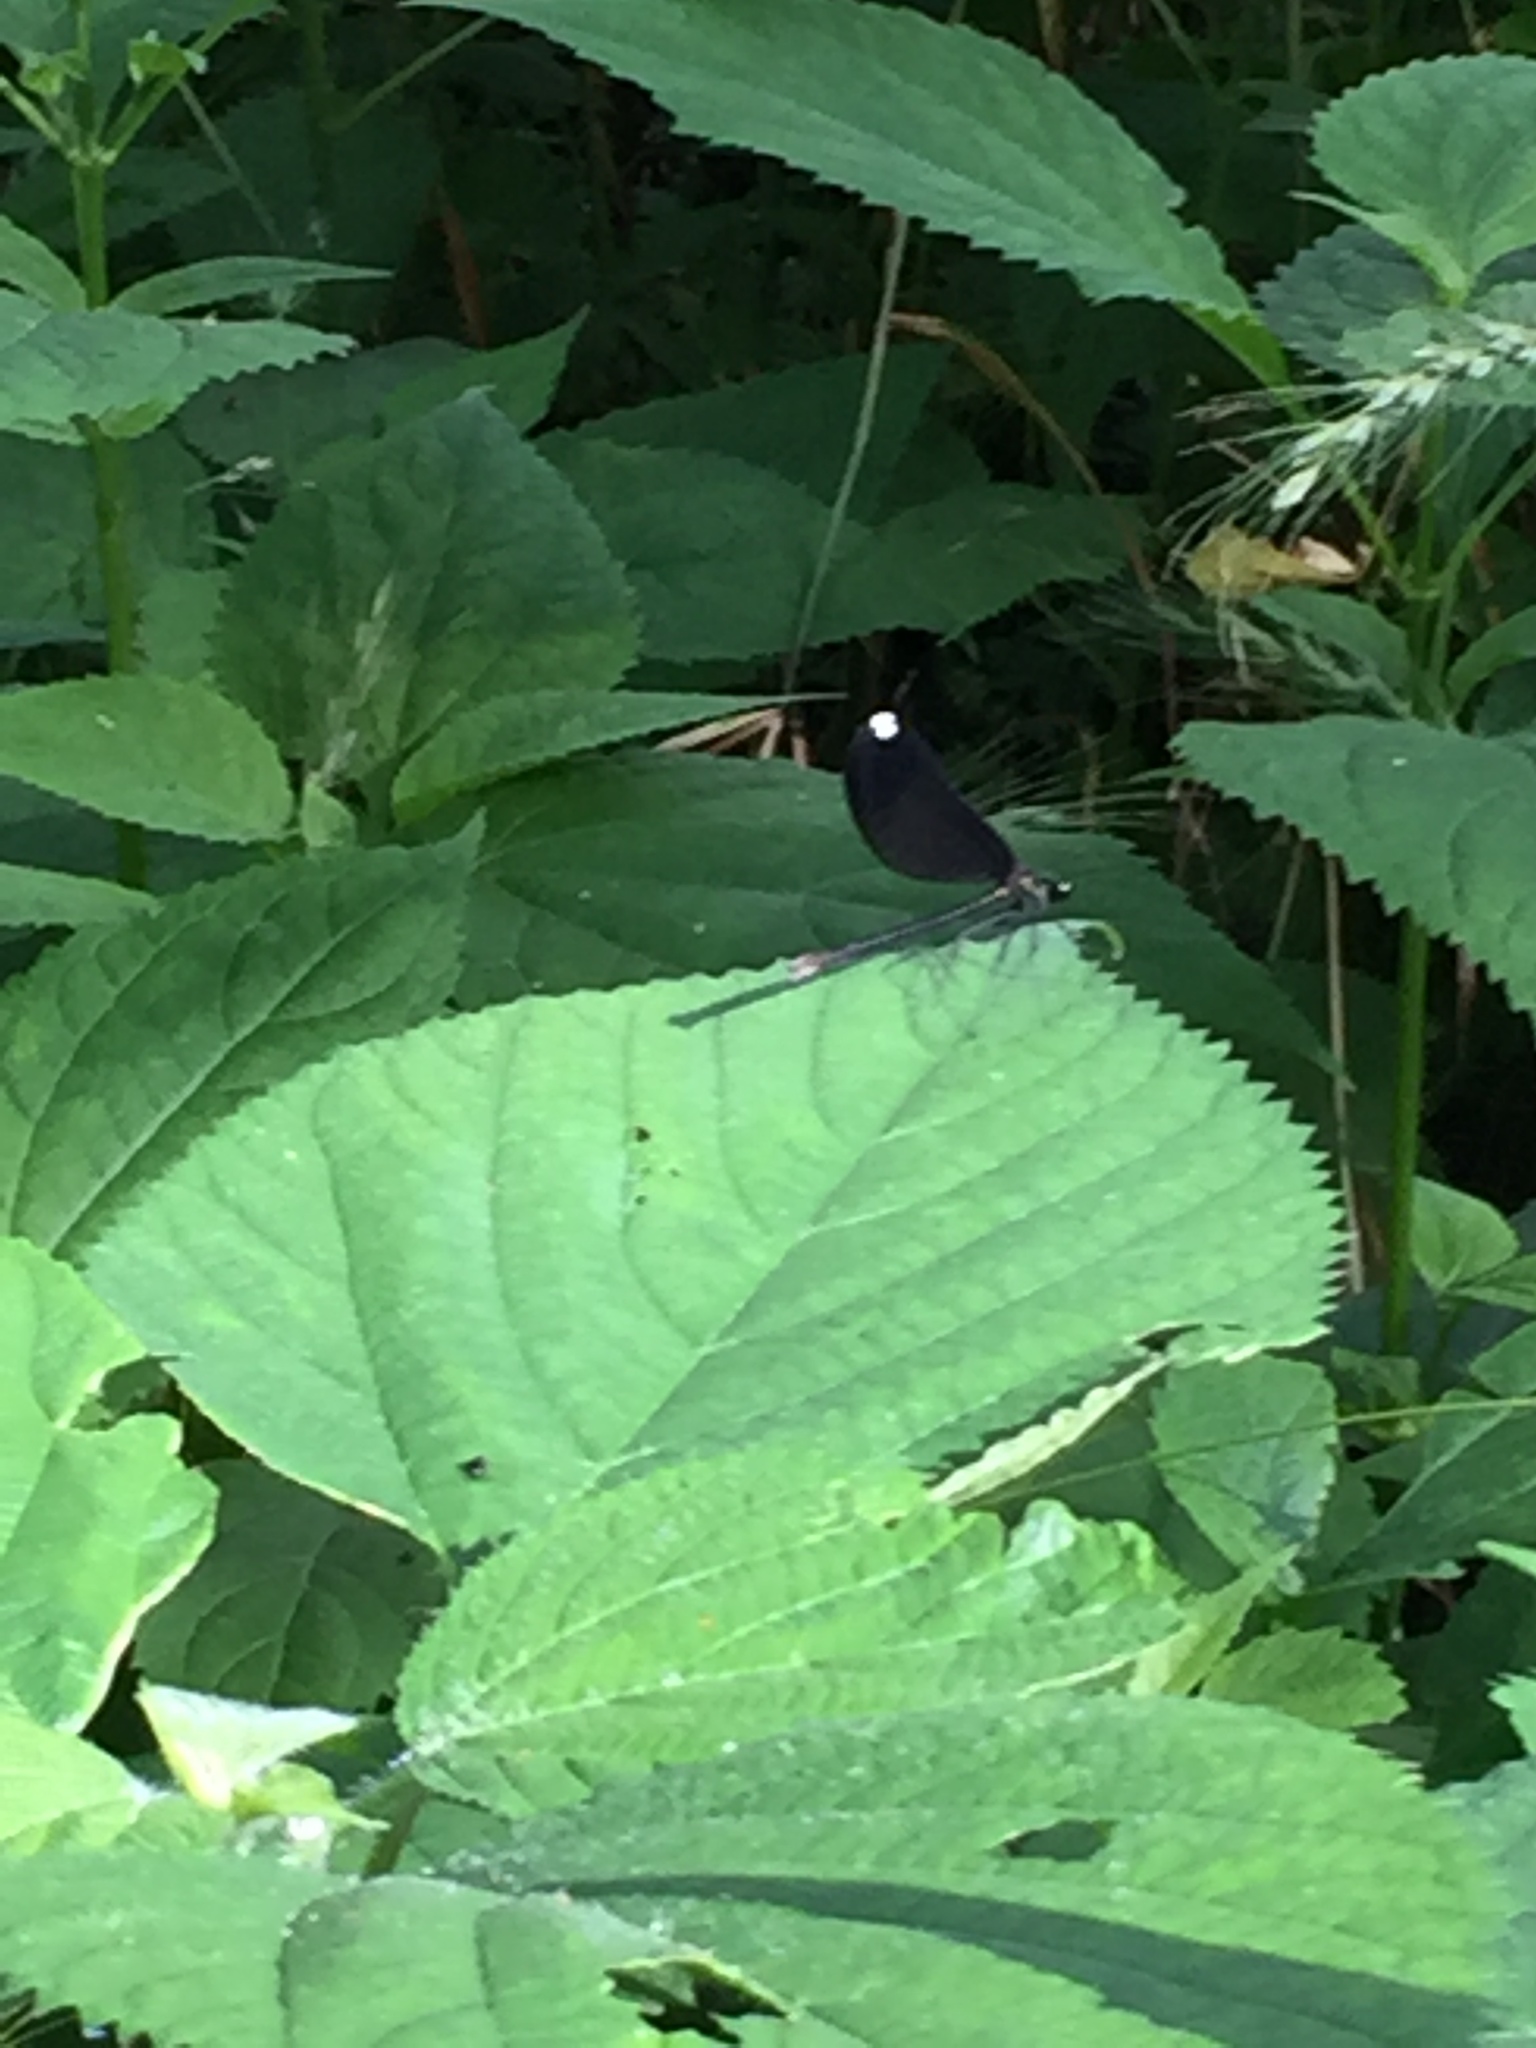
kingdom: Animalia
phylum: Arthropoda
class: Insecta
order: Odonata
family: Calopterygidae
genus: Calopteryx
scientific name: Calopteryx maculata
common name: Ebony jewelwing
